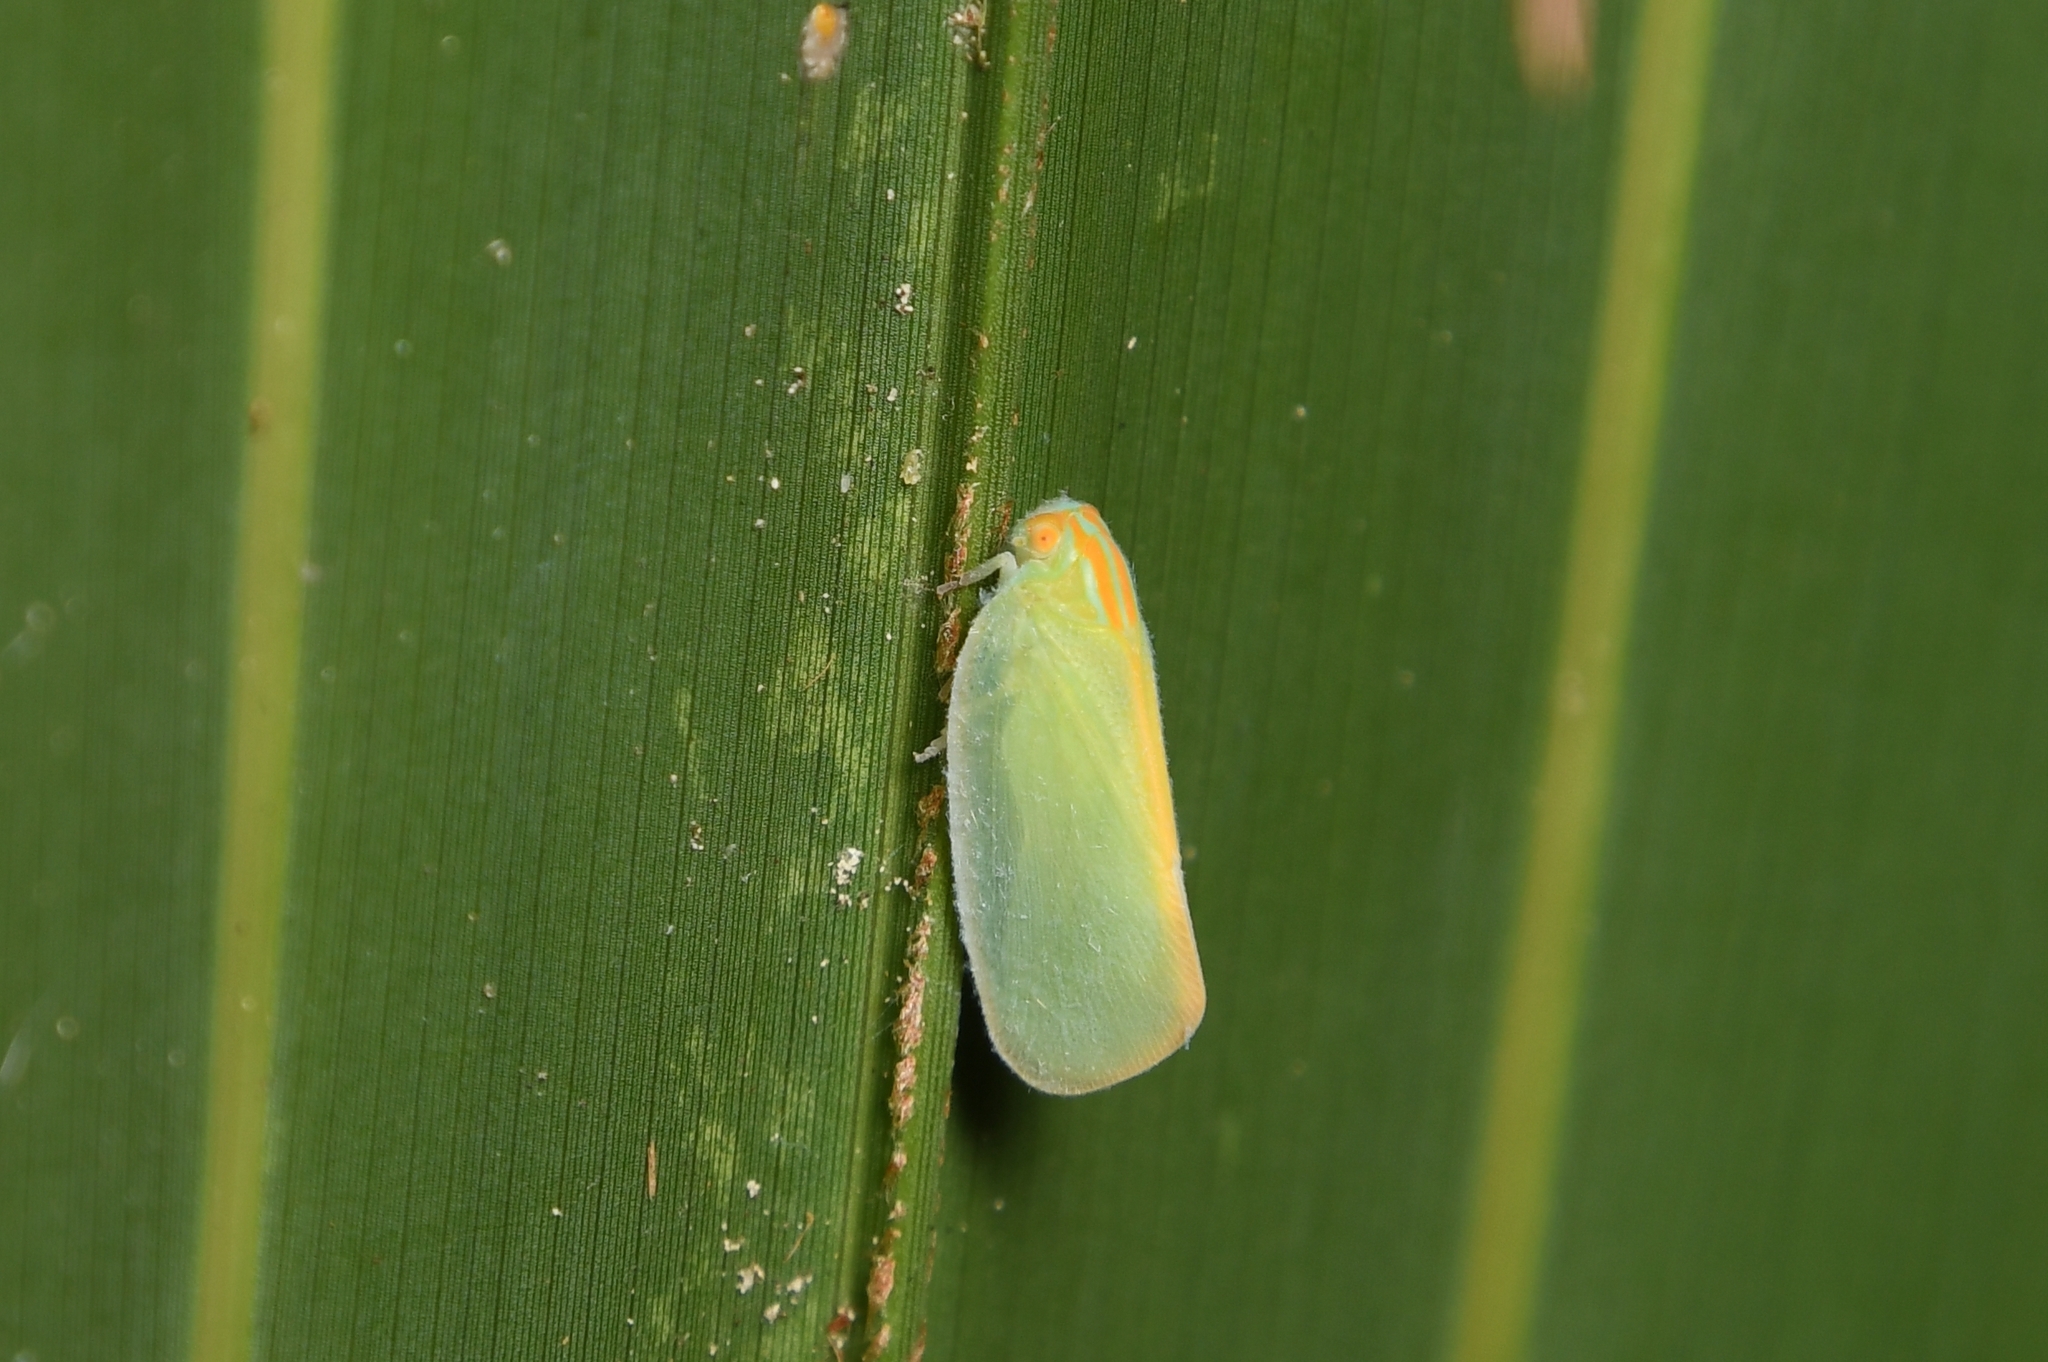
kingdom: Animalia
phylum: Arthropoda
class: Insecta
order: Hemiptera
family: Flatidae
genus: Ormenaria
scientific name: Ormenaria rufifascia
